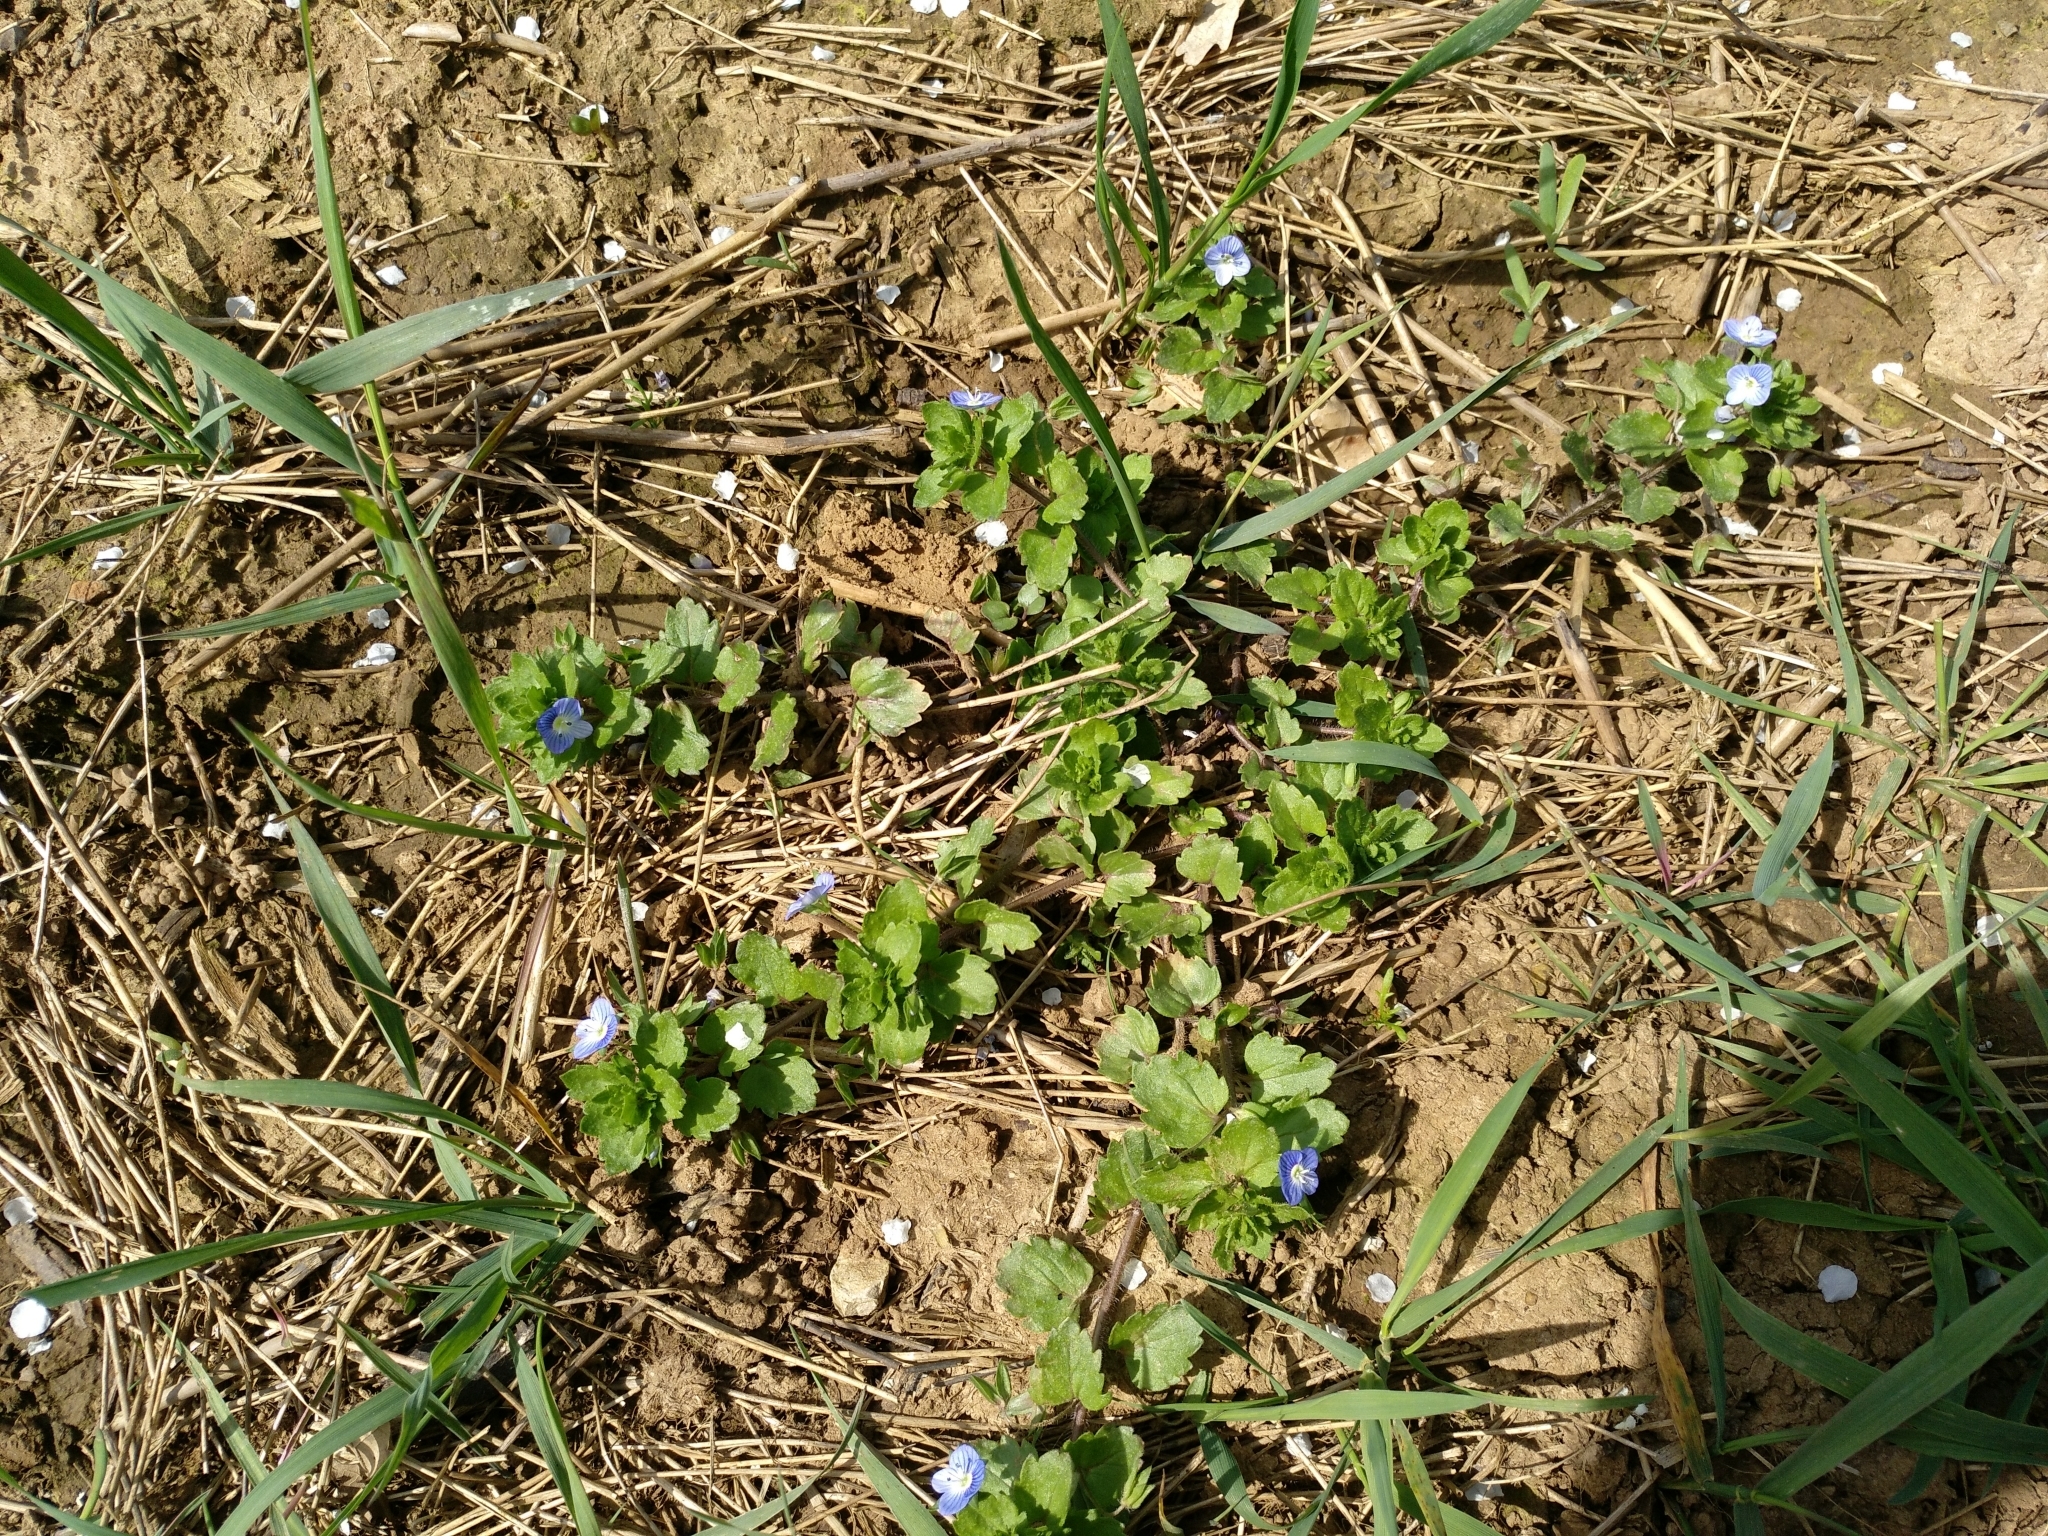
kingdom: Plantae
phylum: Tracheophyta
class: Magnoliopsida
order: Lamiales
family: Plantaginaceae
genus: Veronica
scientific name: Veronica persica
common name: Common field-speedwell
